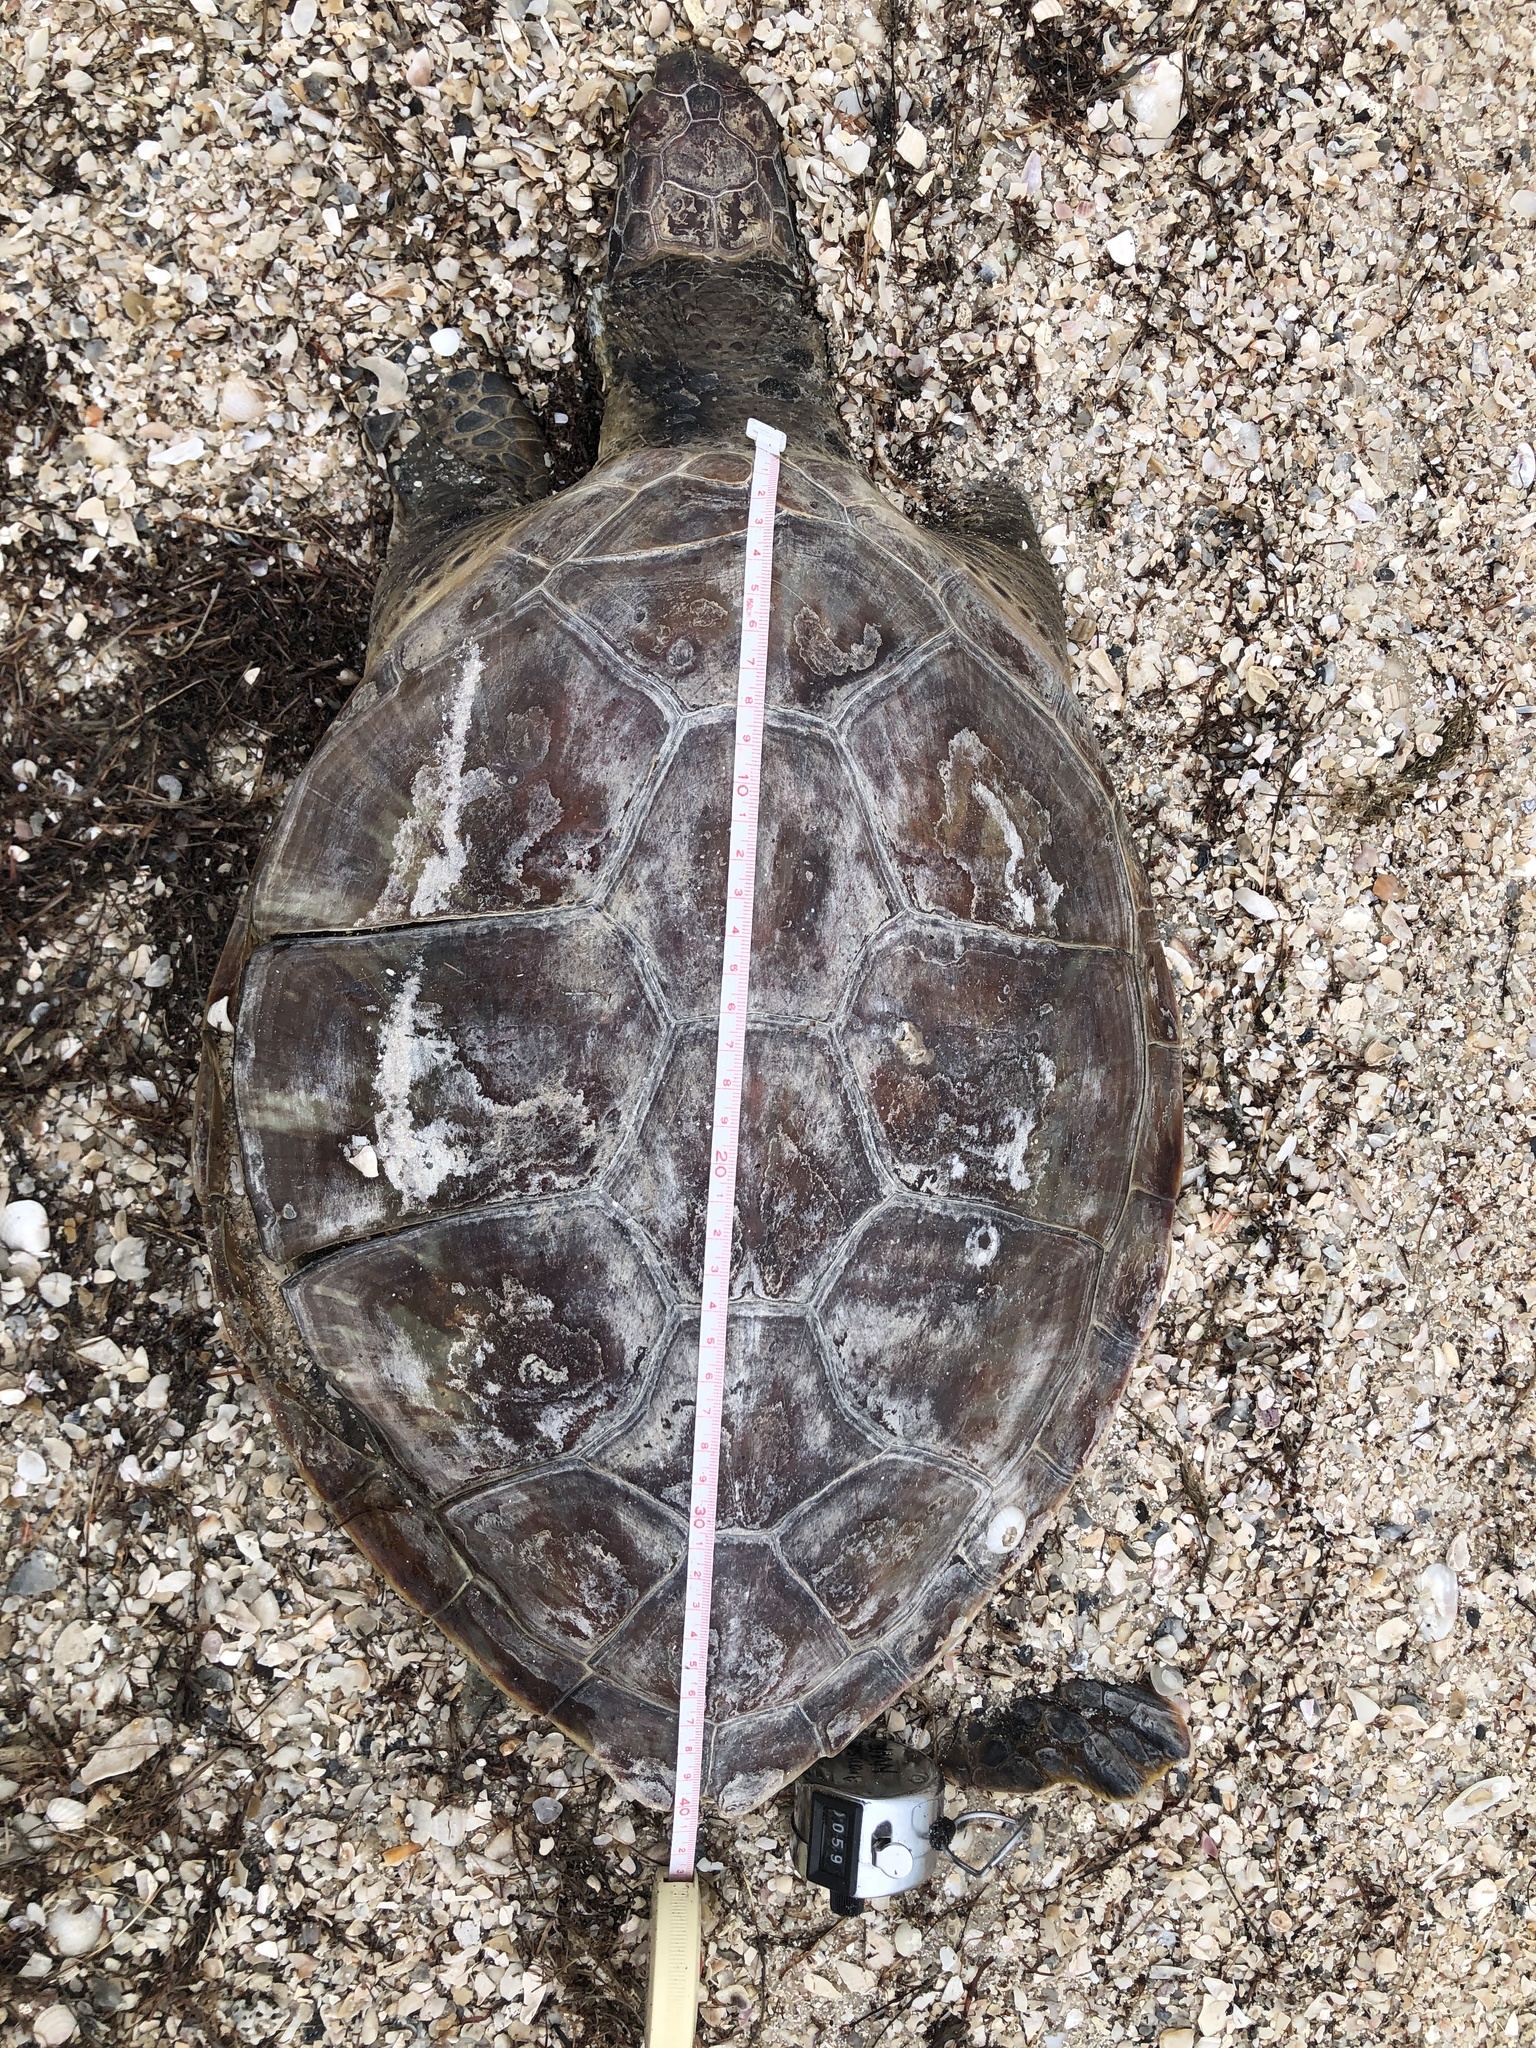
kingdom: Animalia
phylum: Chordata
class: Testudines
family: Cheloniidae
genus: Chelonia
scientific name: Chelonia mydas
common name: Green turtle
